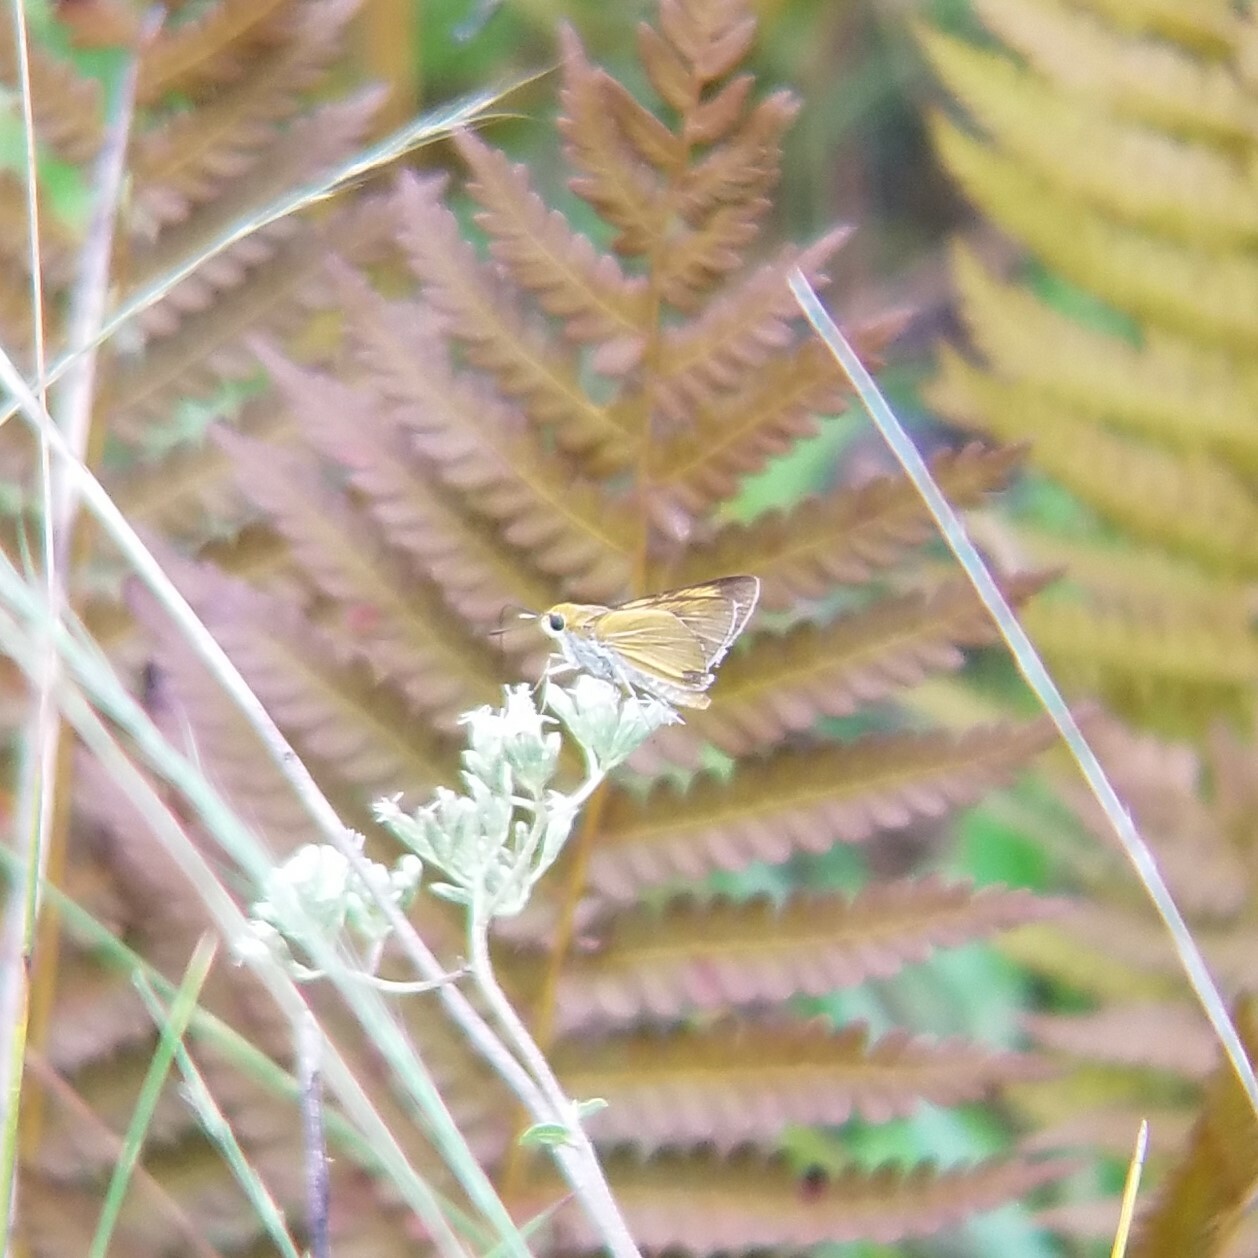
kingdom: Animalia
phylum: Arthropoda
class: Insecta
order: Lepidoptera
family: Hesperiidae
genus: Euphyes
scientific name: Euphyes arpa
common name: Palmetto skipper
